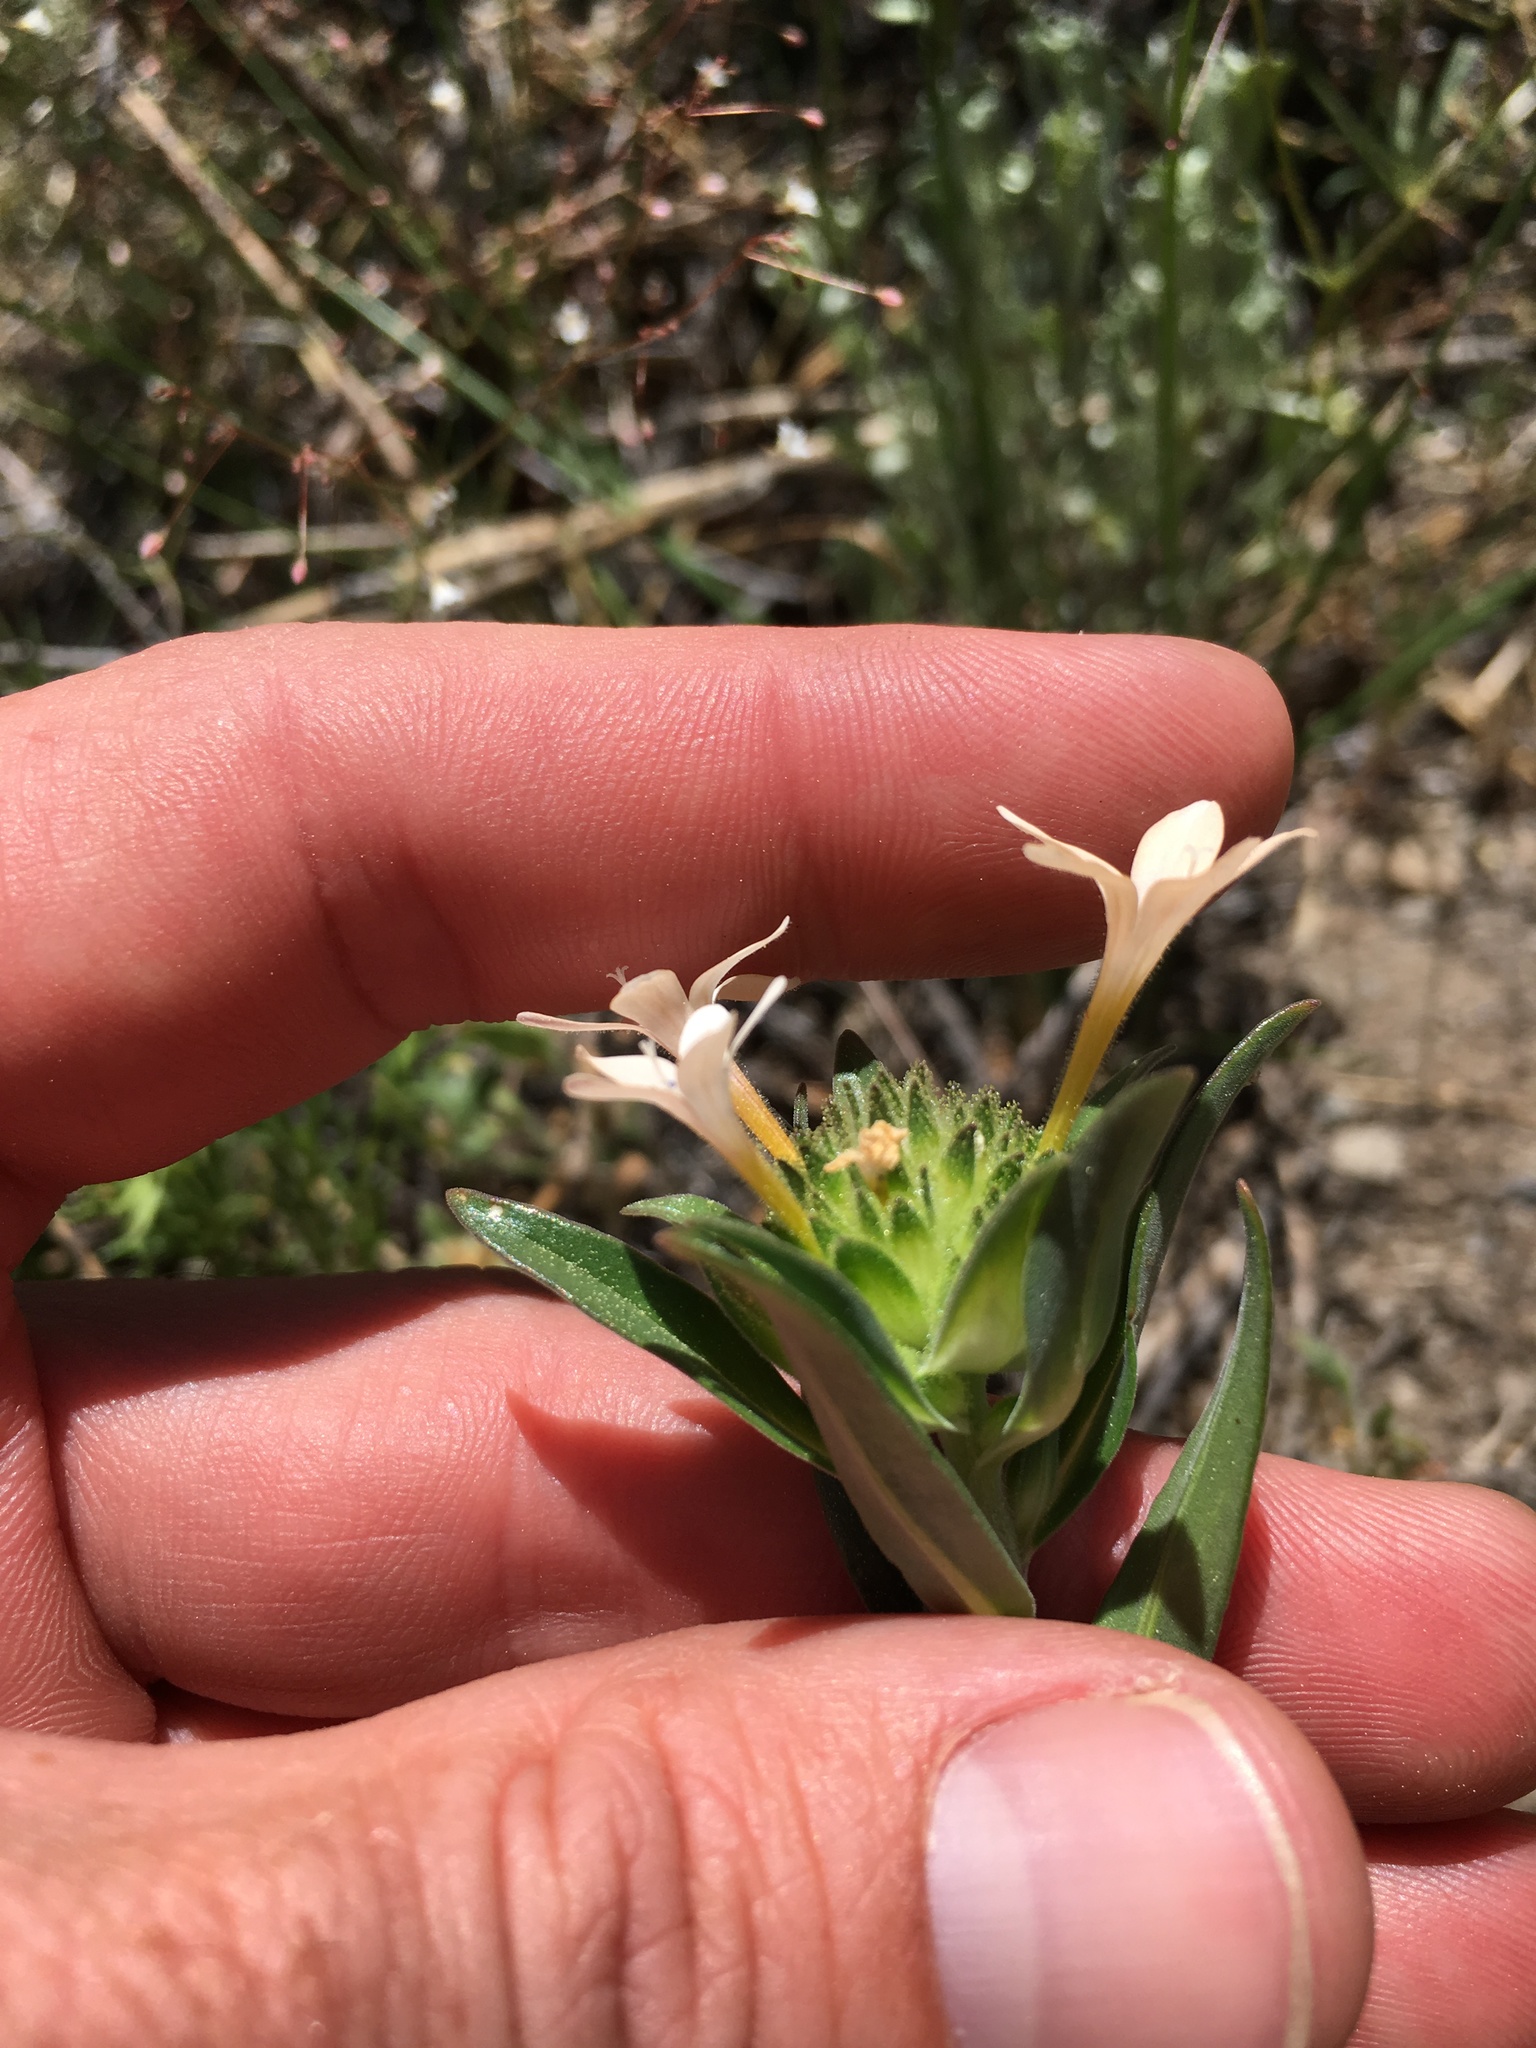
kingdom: Plantae
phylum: Tracheophyta
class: Magnoliopsida
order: Ericales
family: Polemoniaceae
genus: Collomia
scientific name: Collomia grandiflora
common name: California strawflower
